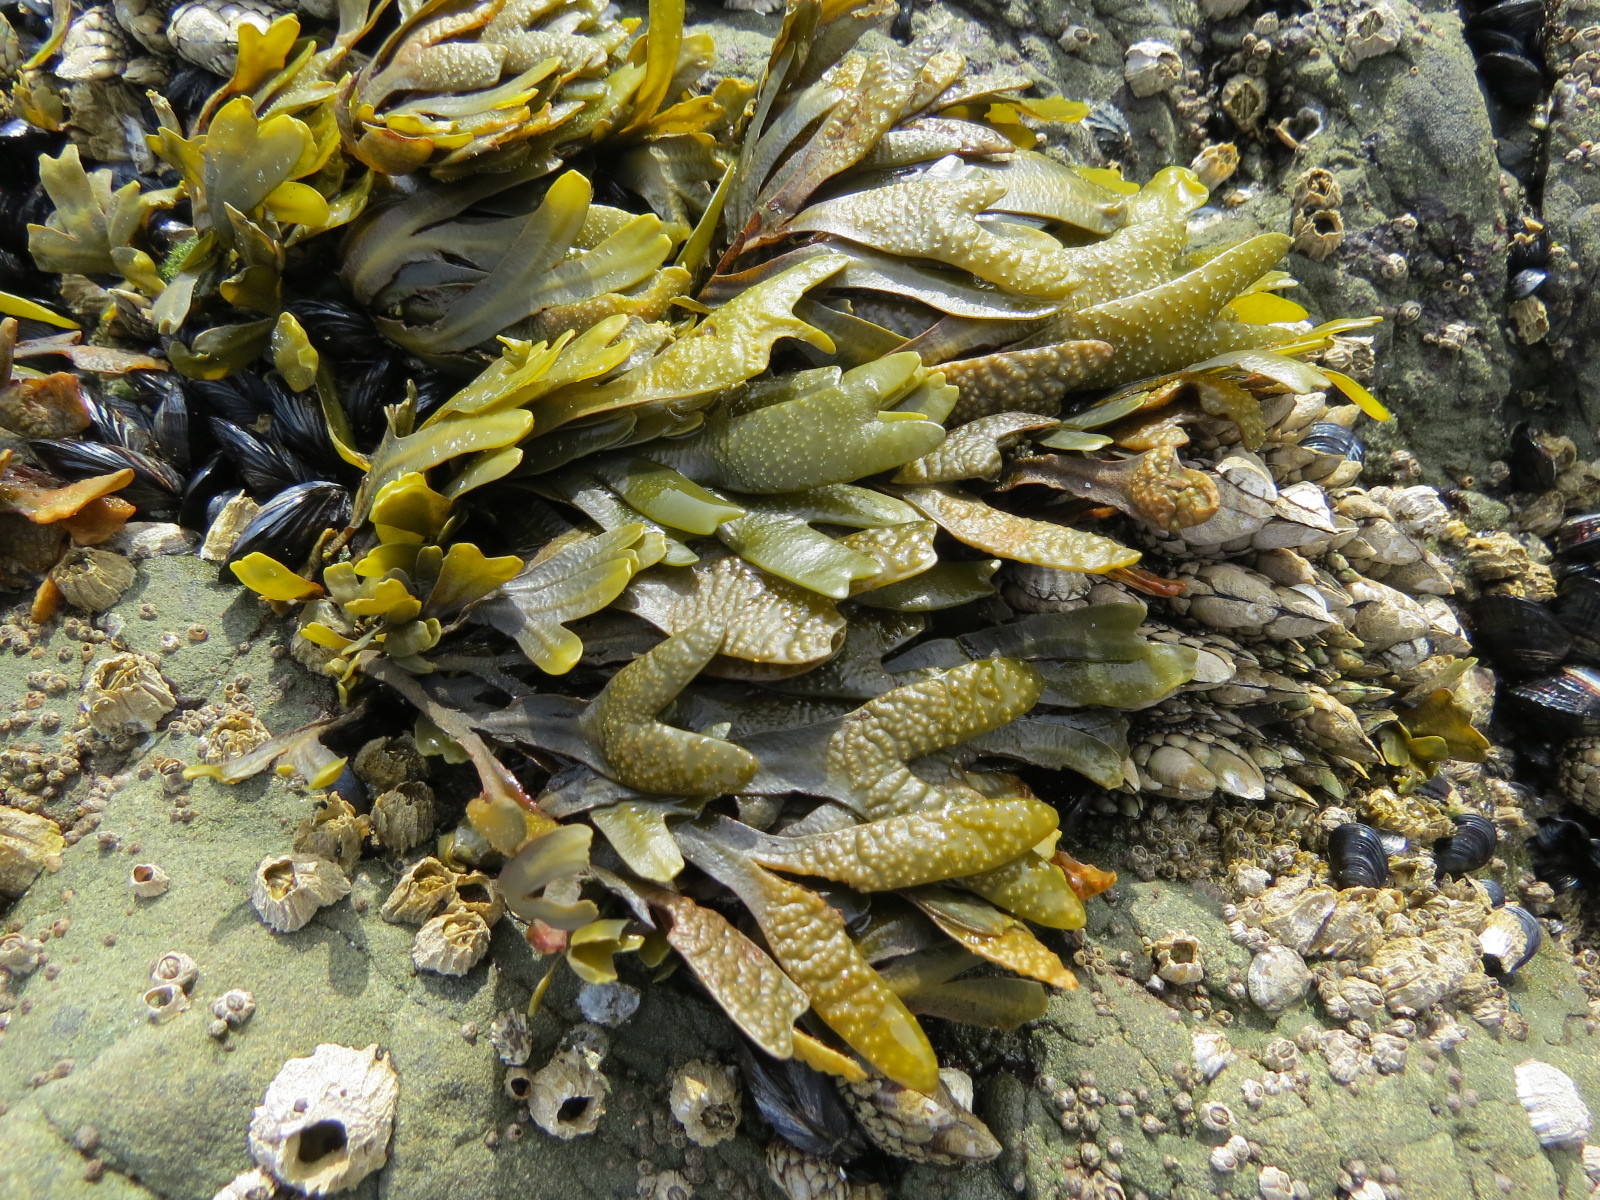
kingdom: Chromista
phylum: Ochrophyta
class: Phaeophyceae
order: Fucales
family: Fucaceae
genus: Fucus
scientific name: Fucus distichus
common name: Rockweed
